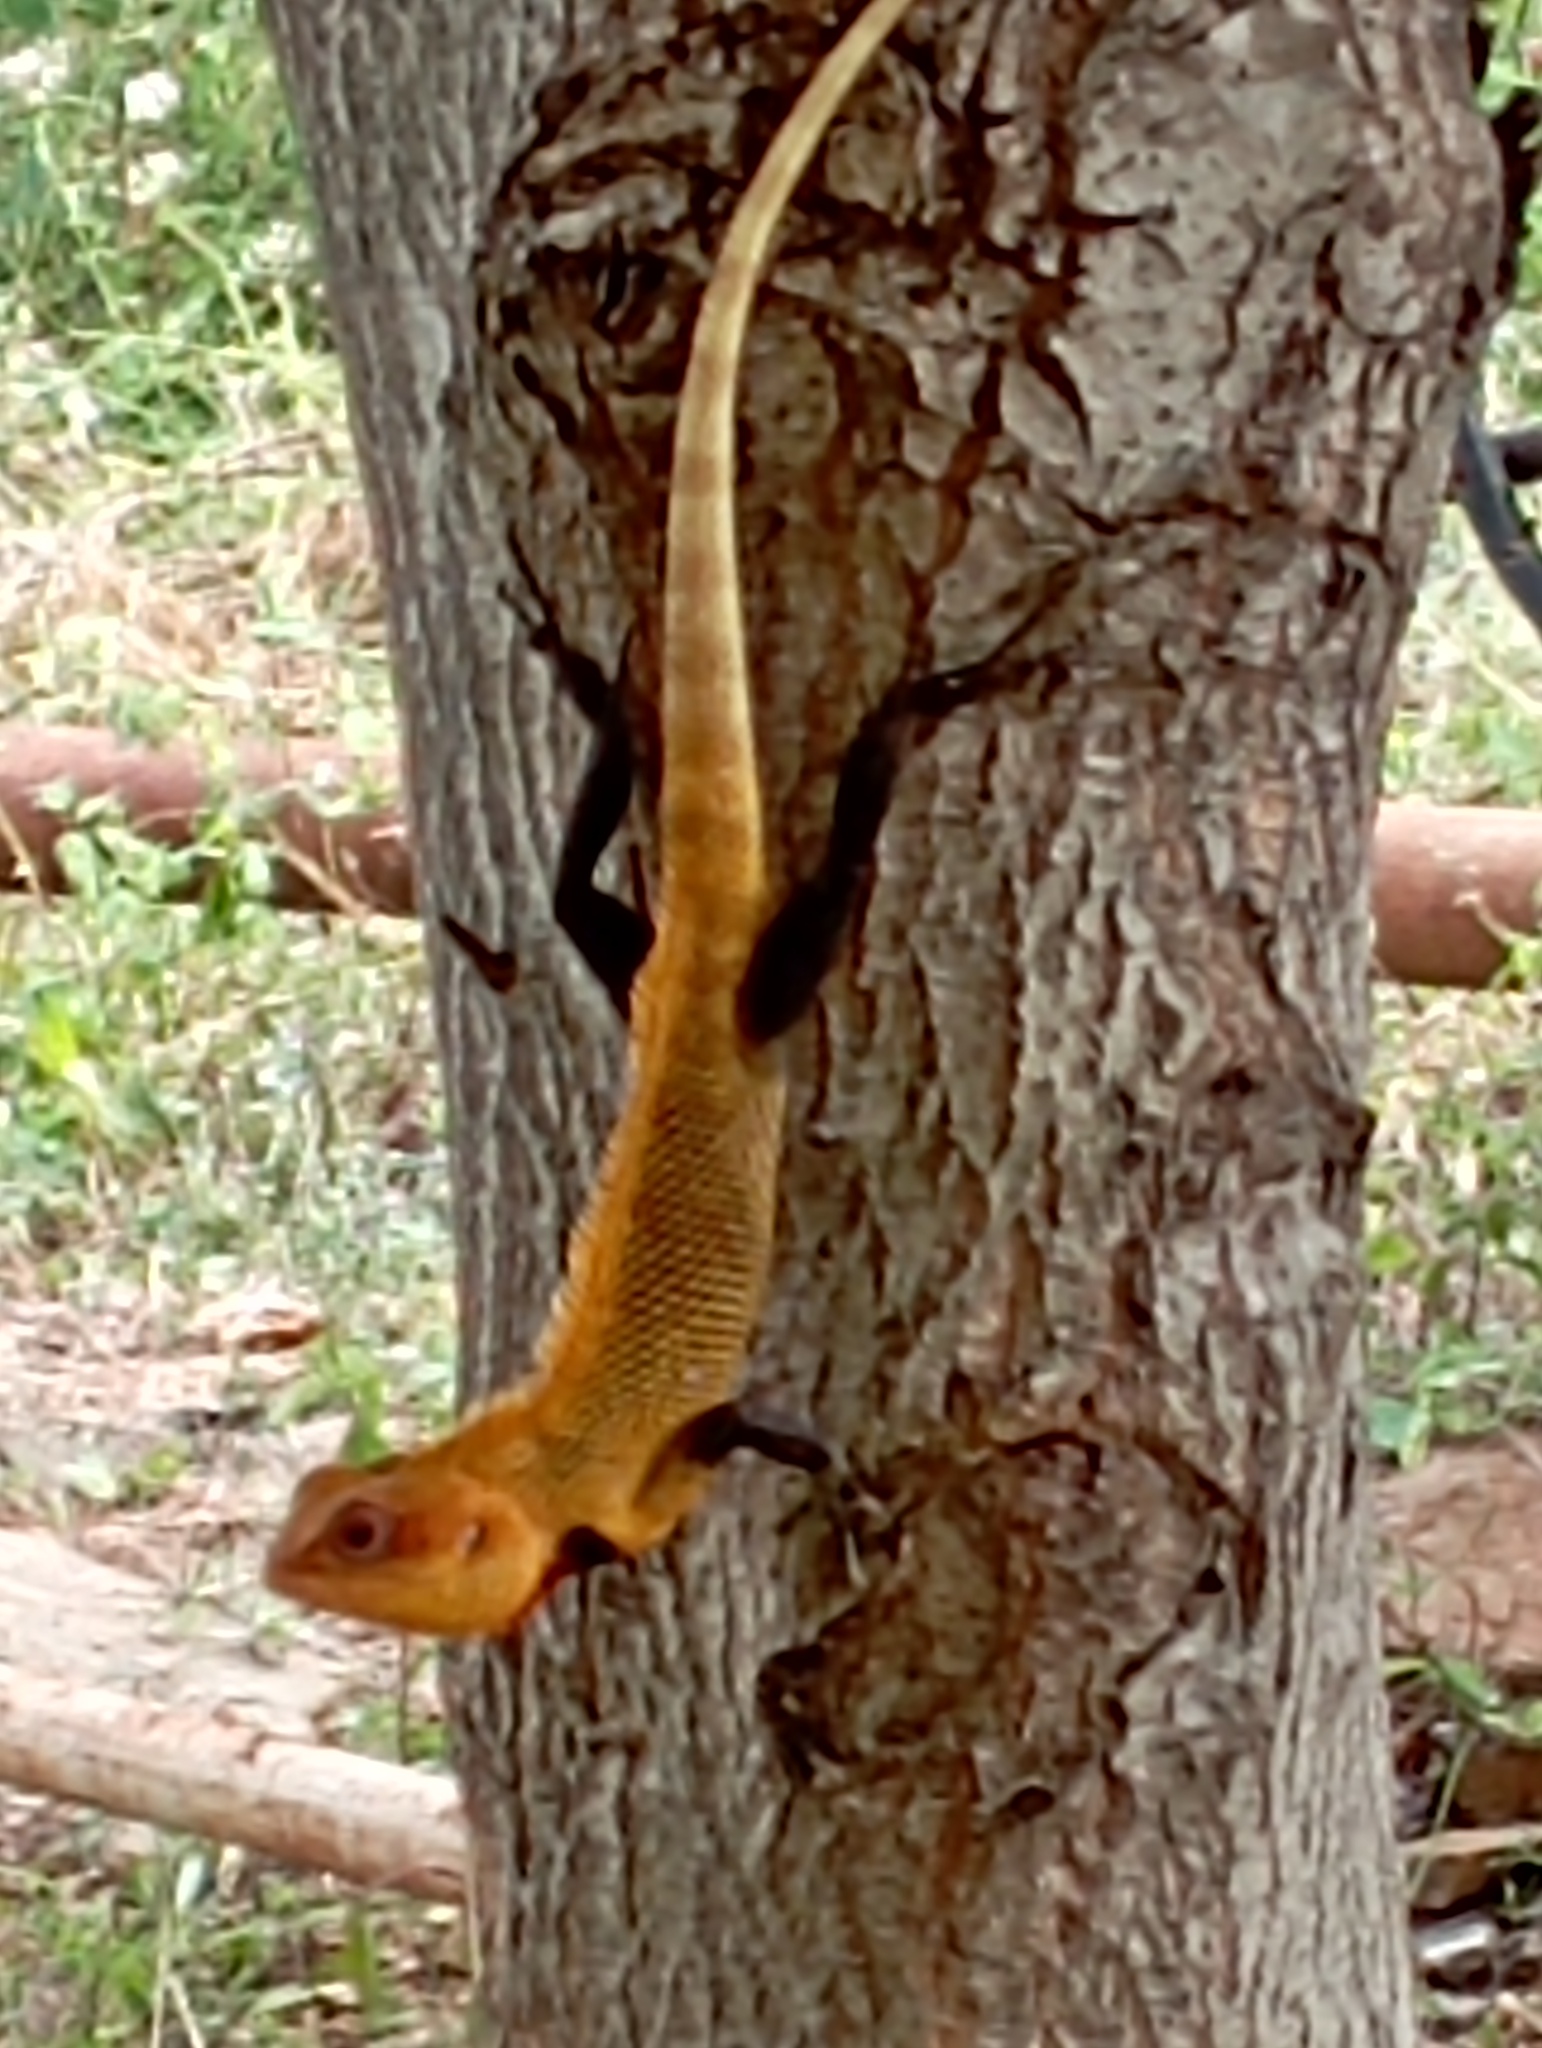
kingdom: Animalia
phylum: Chordata
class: Squamata
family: Agamidae
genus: Calotes
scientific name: Calotes versicolor
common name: Oriental garden lizard
